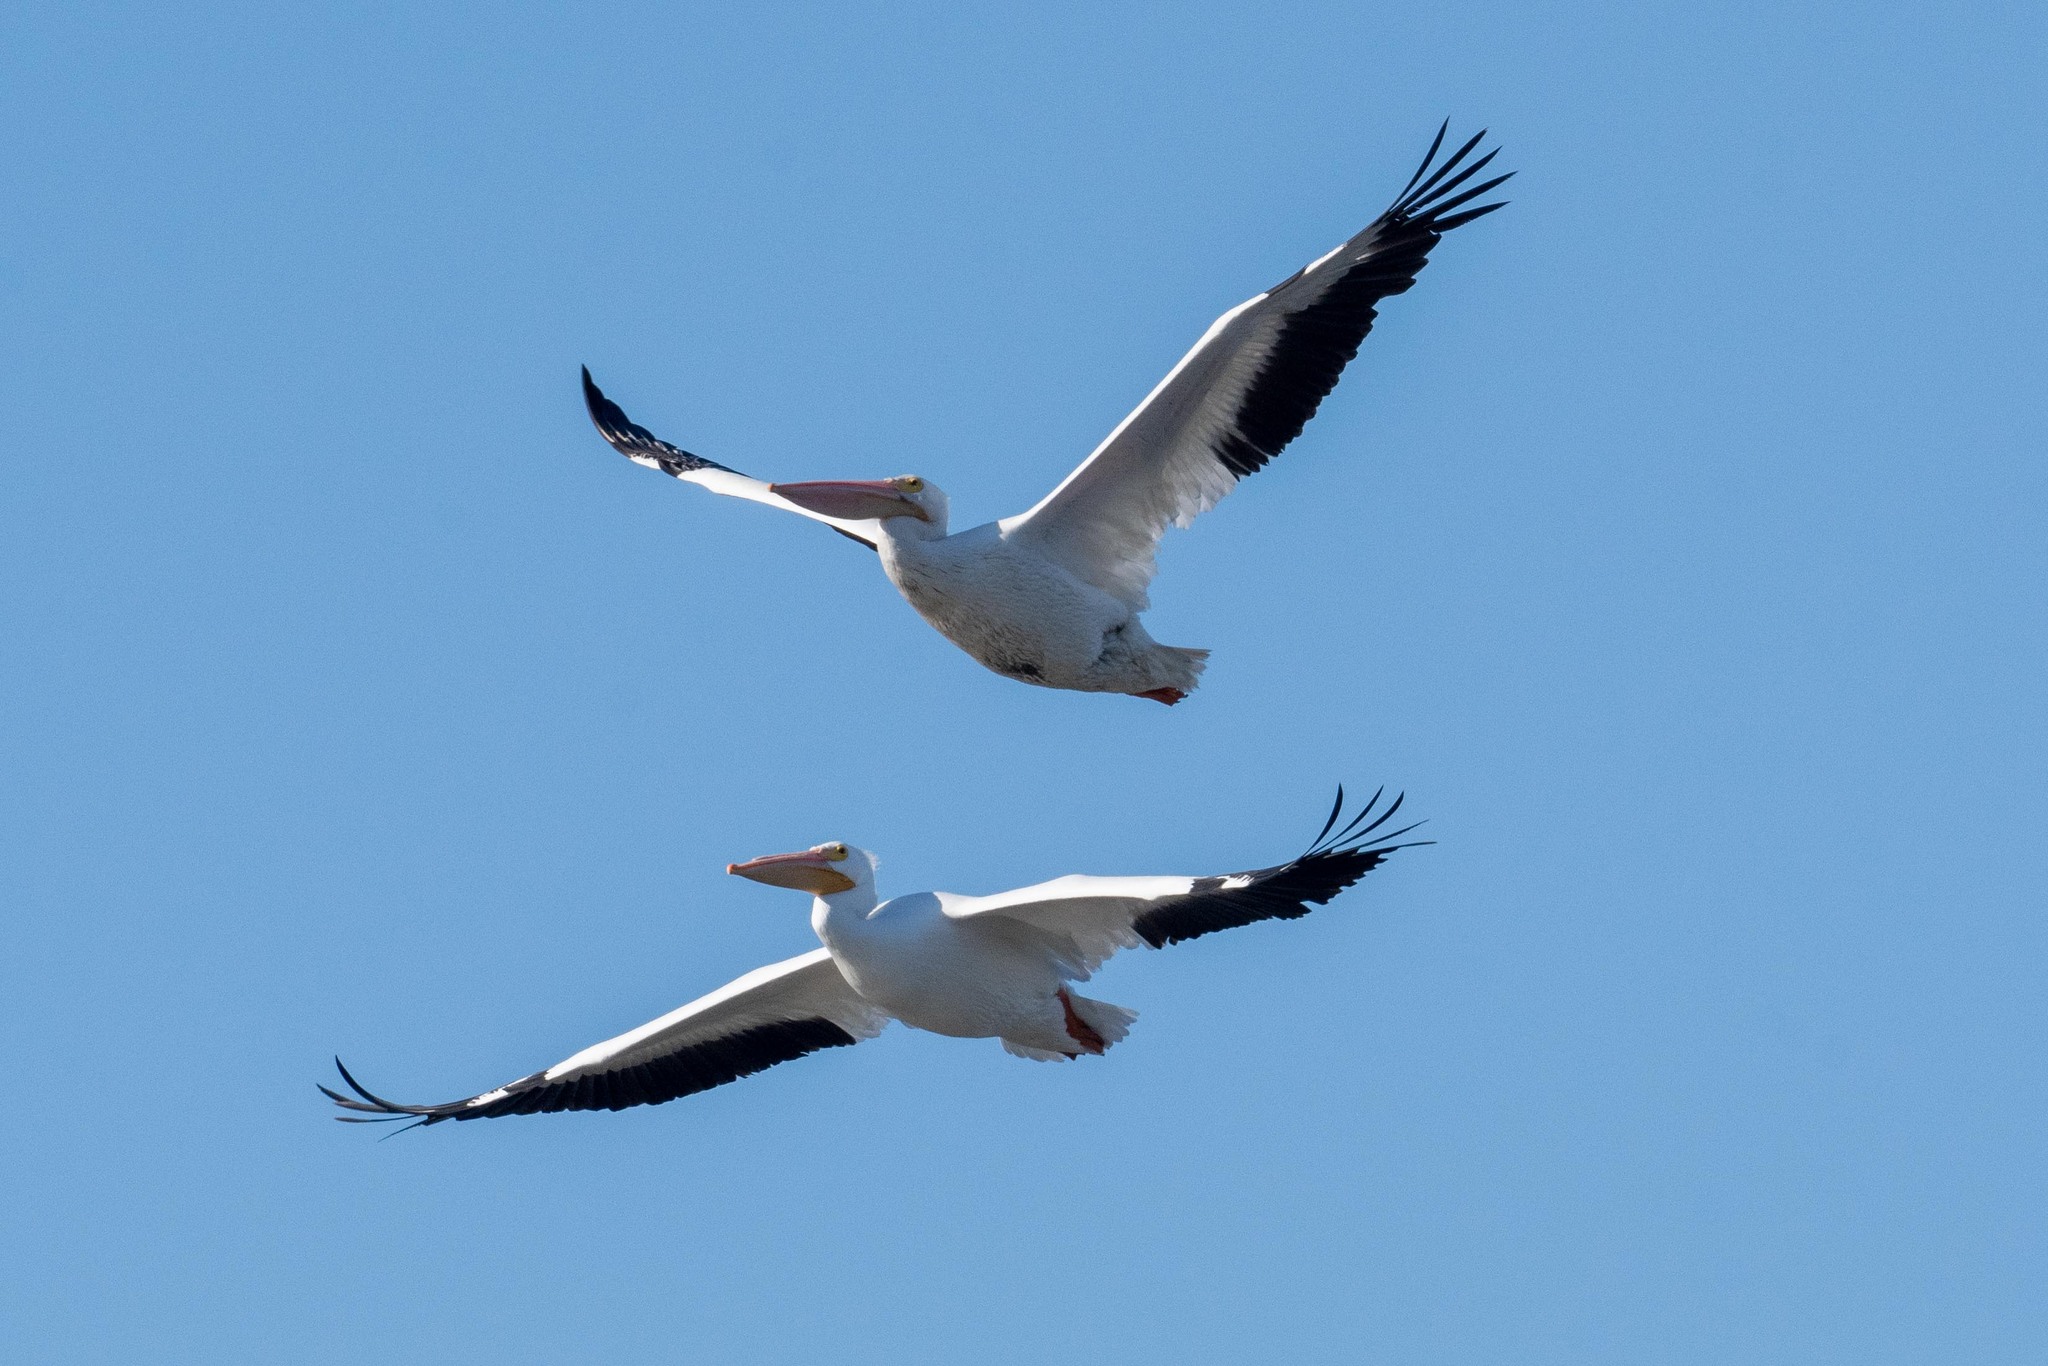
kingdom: Animalia
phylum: Chordata
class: Aves
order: Pelecaniformes
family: Pelecanidae
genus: Pelecanus
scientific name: Pelecanus erythrorhynchos
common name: American white pelican
